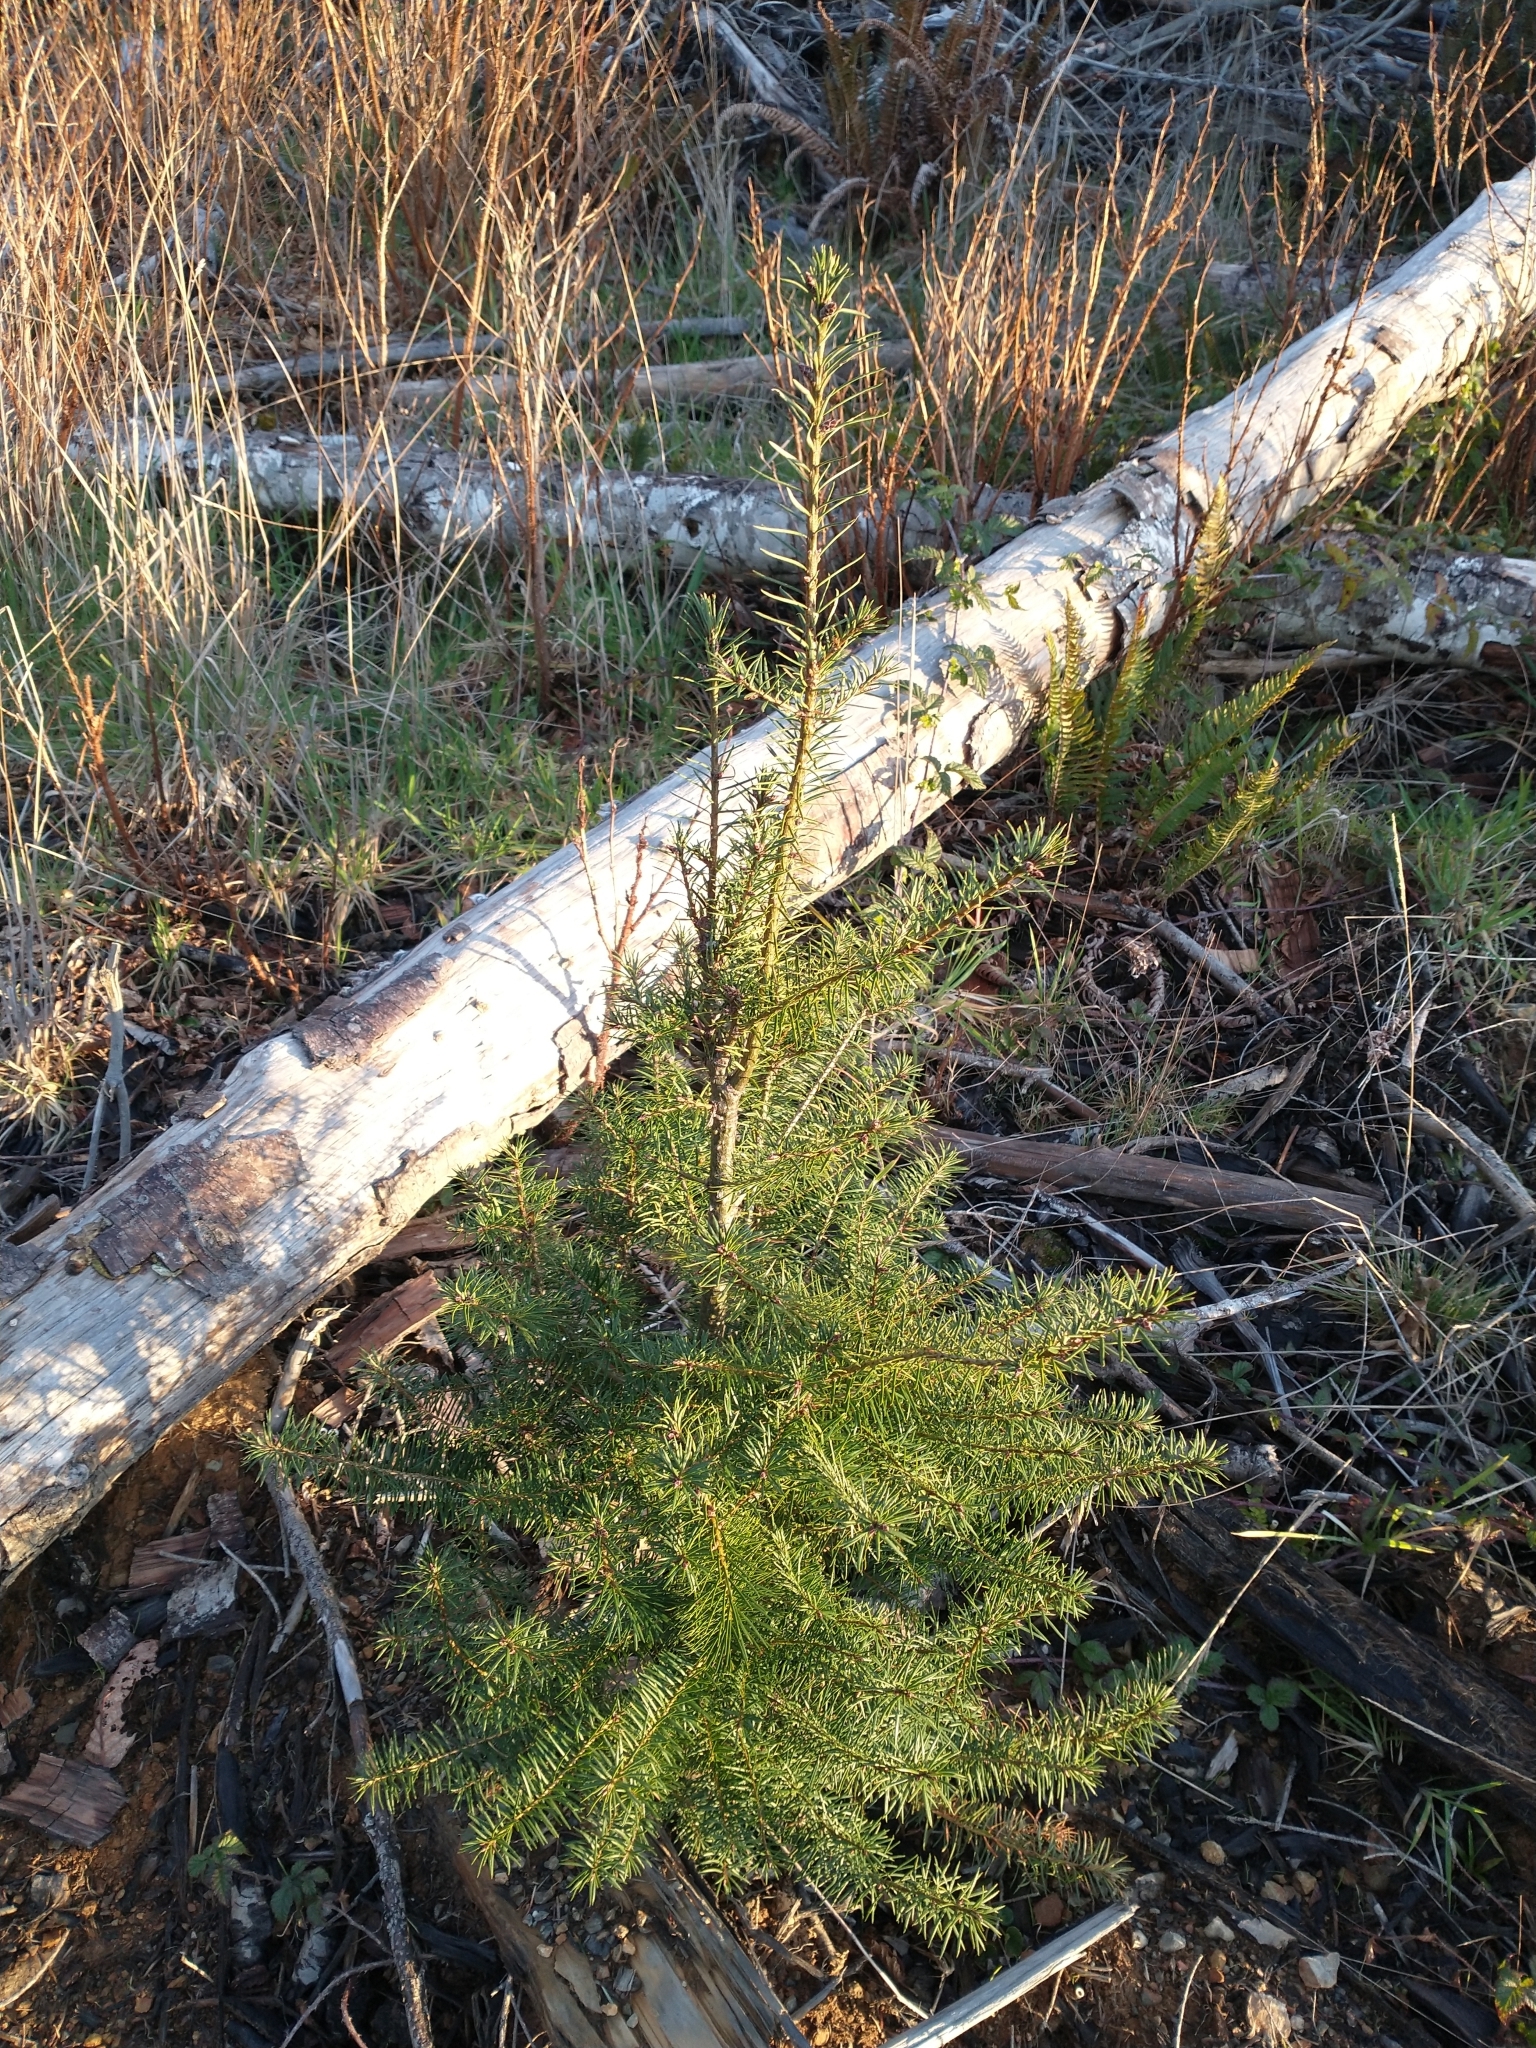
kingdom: Plantae
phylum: Tracheophyta
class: Pinopsida
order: Pinales
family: Pinaceae
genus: Pseudotsuga
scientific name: Pseudotsuga menziesii
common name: Douglas fir
